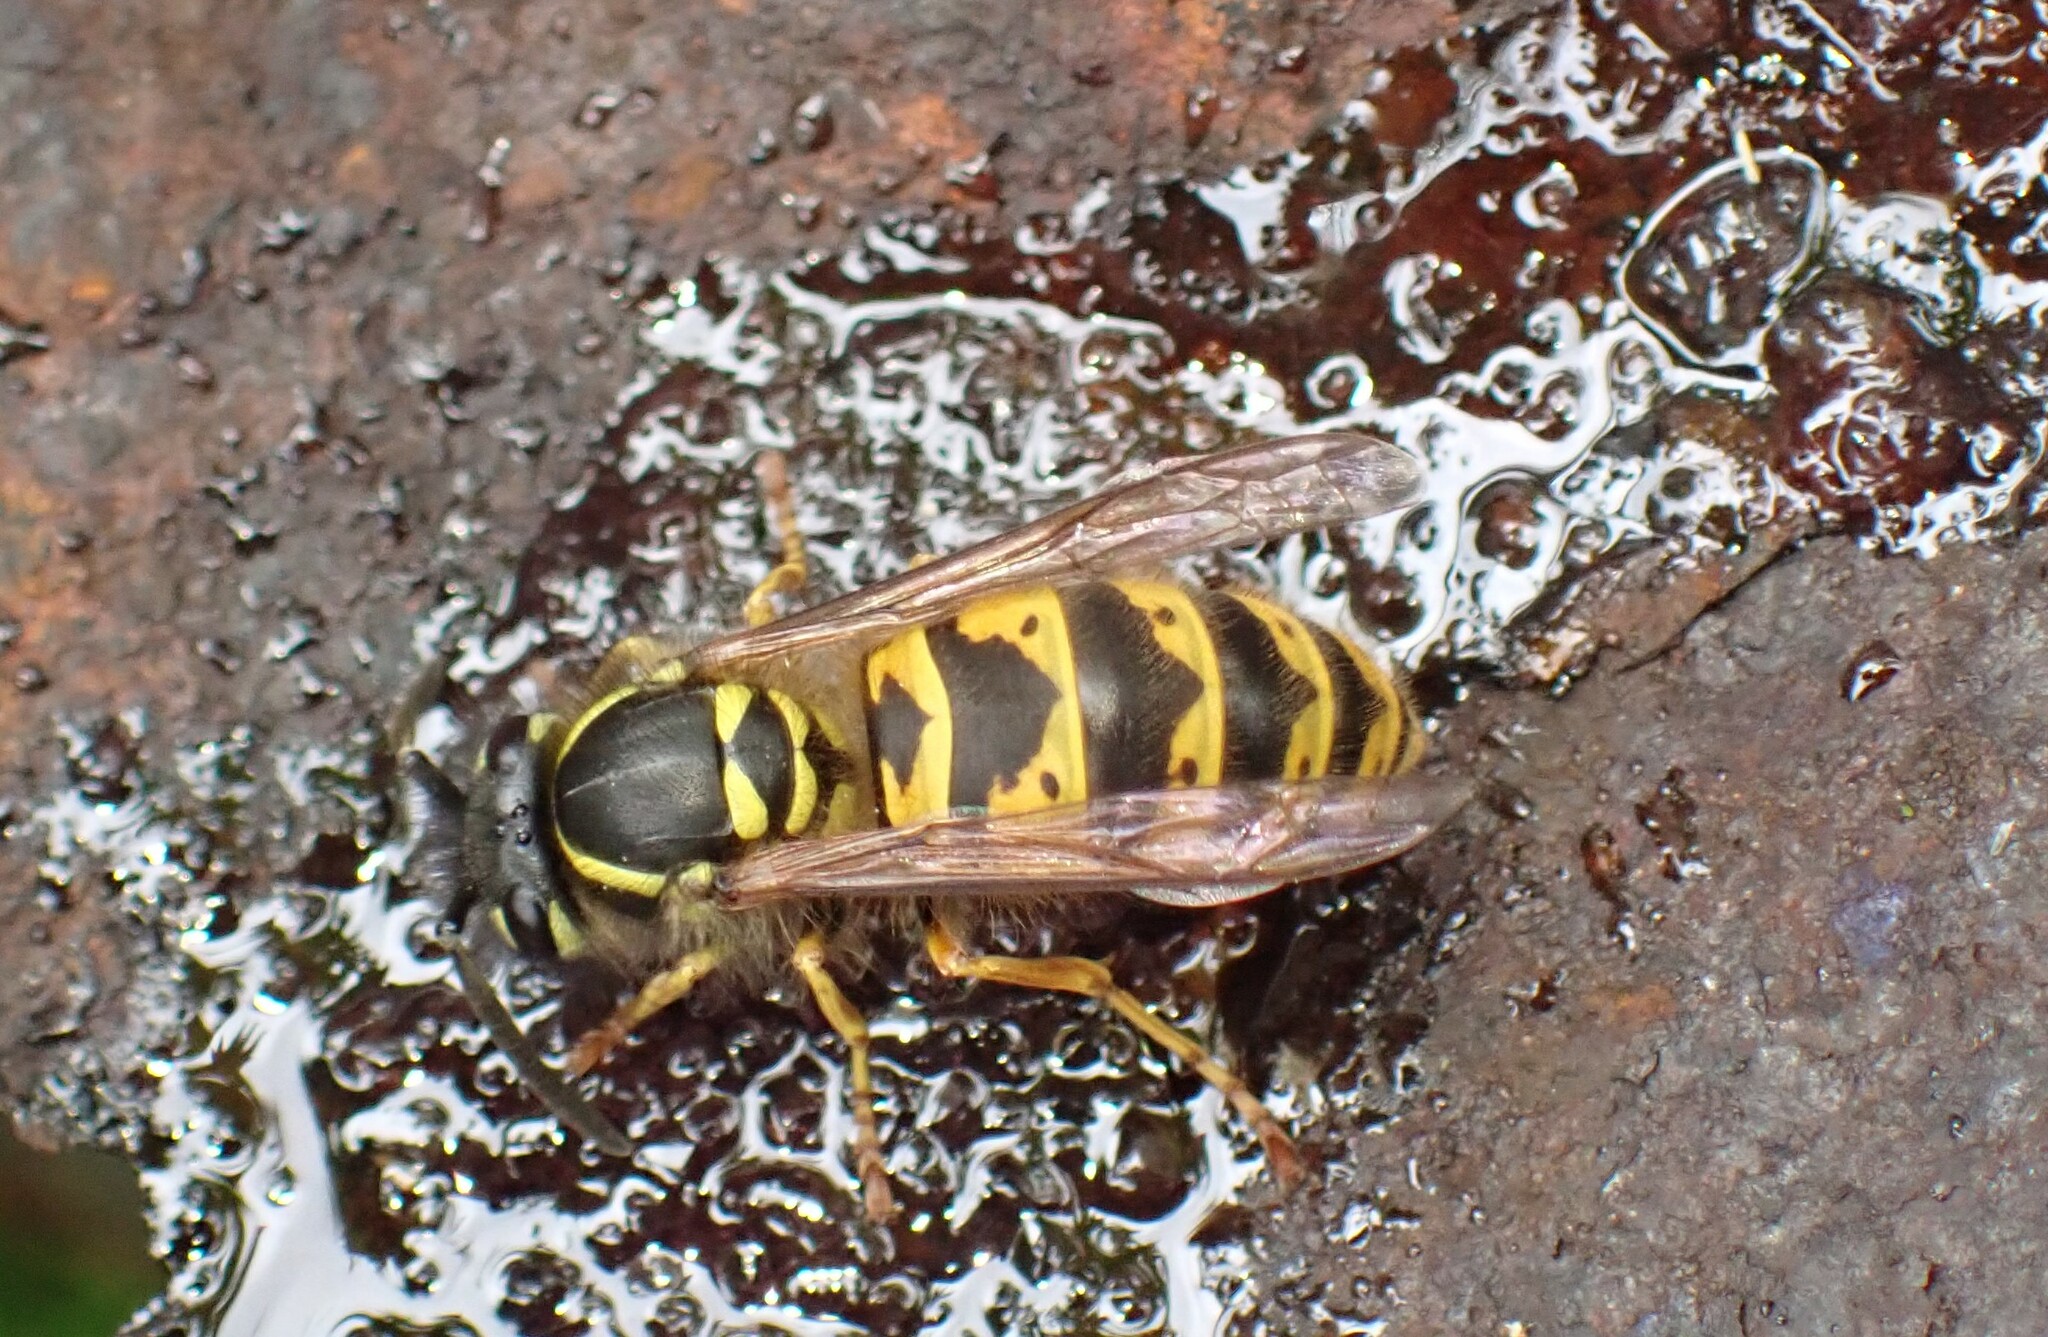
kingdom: Animalia
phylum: Arthropoda
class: Insecta
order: Hymenoptera
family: Vespidae
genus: Vespula
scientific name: Vespula vulgaris
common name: Common wasp
